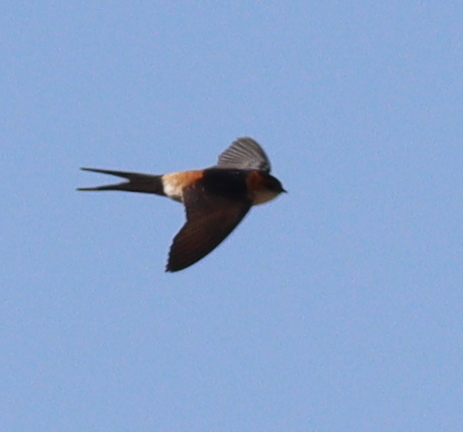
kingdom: Animalia
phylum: Chordata
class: Aves
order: Passeriformes
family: Hirundinidae
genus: Cecropis
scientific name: Cecropis daurica
